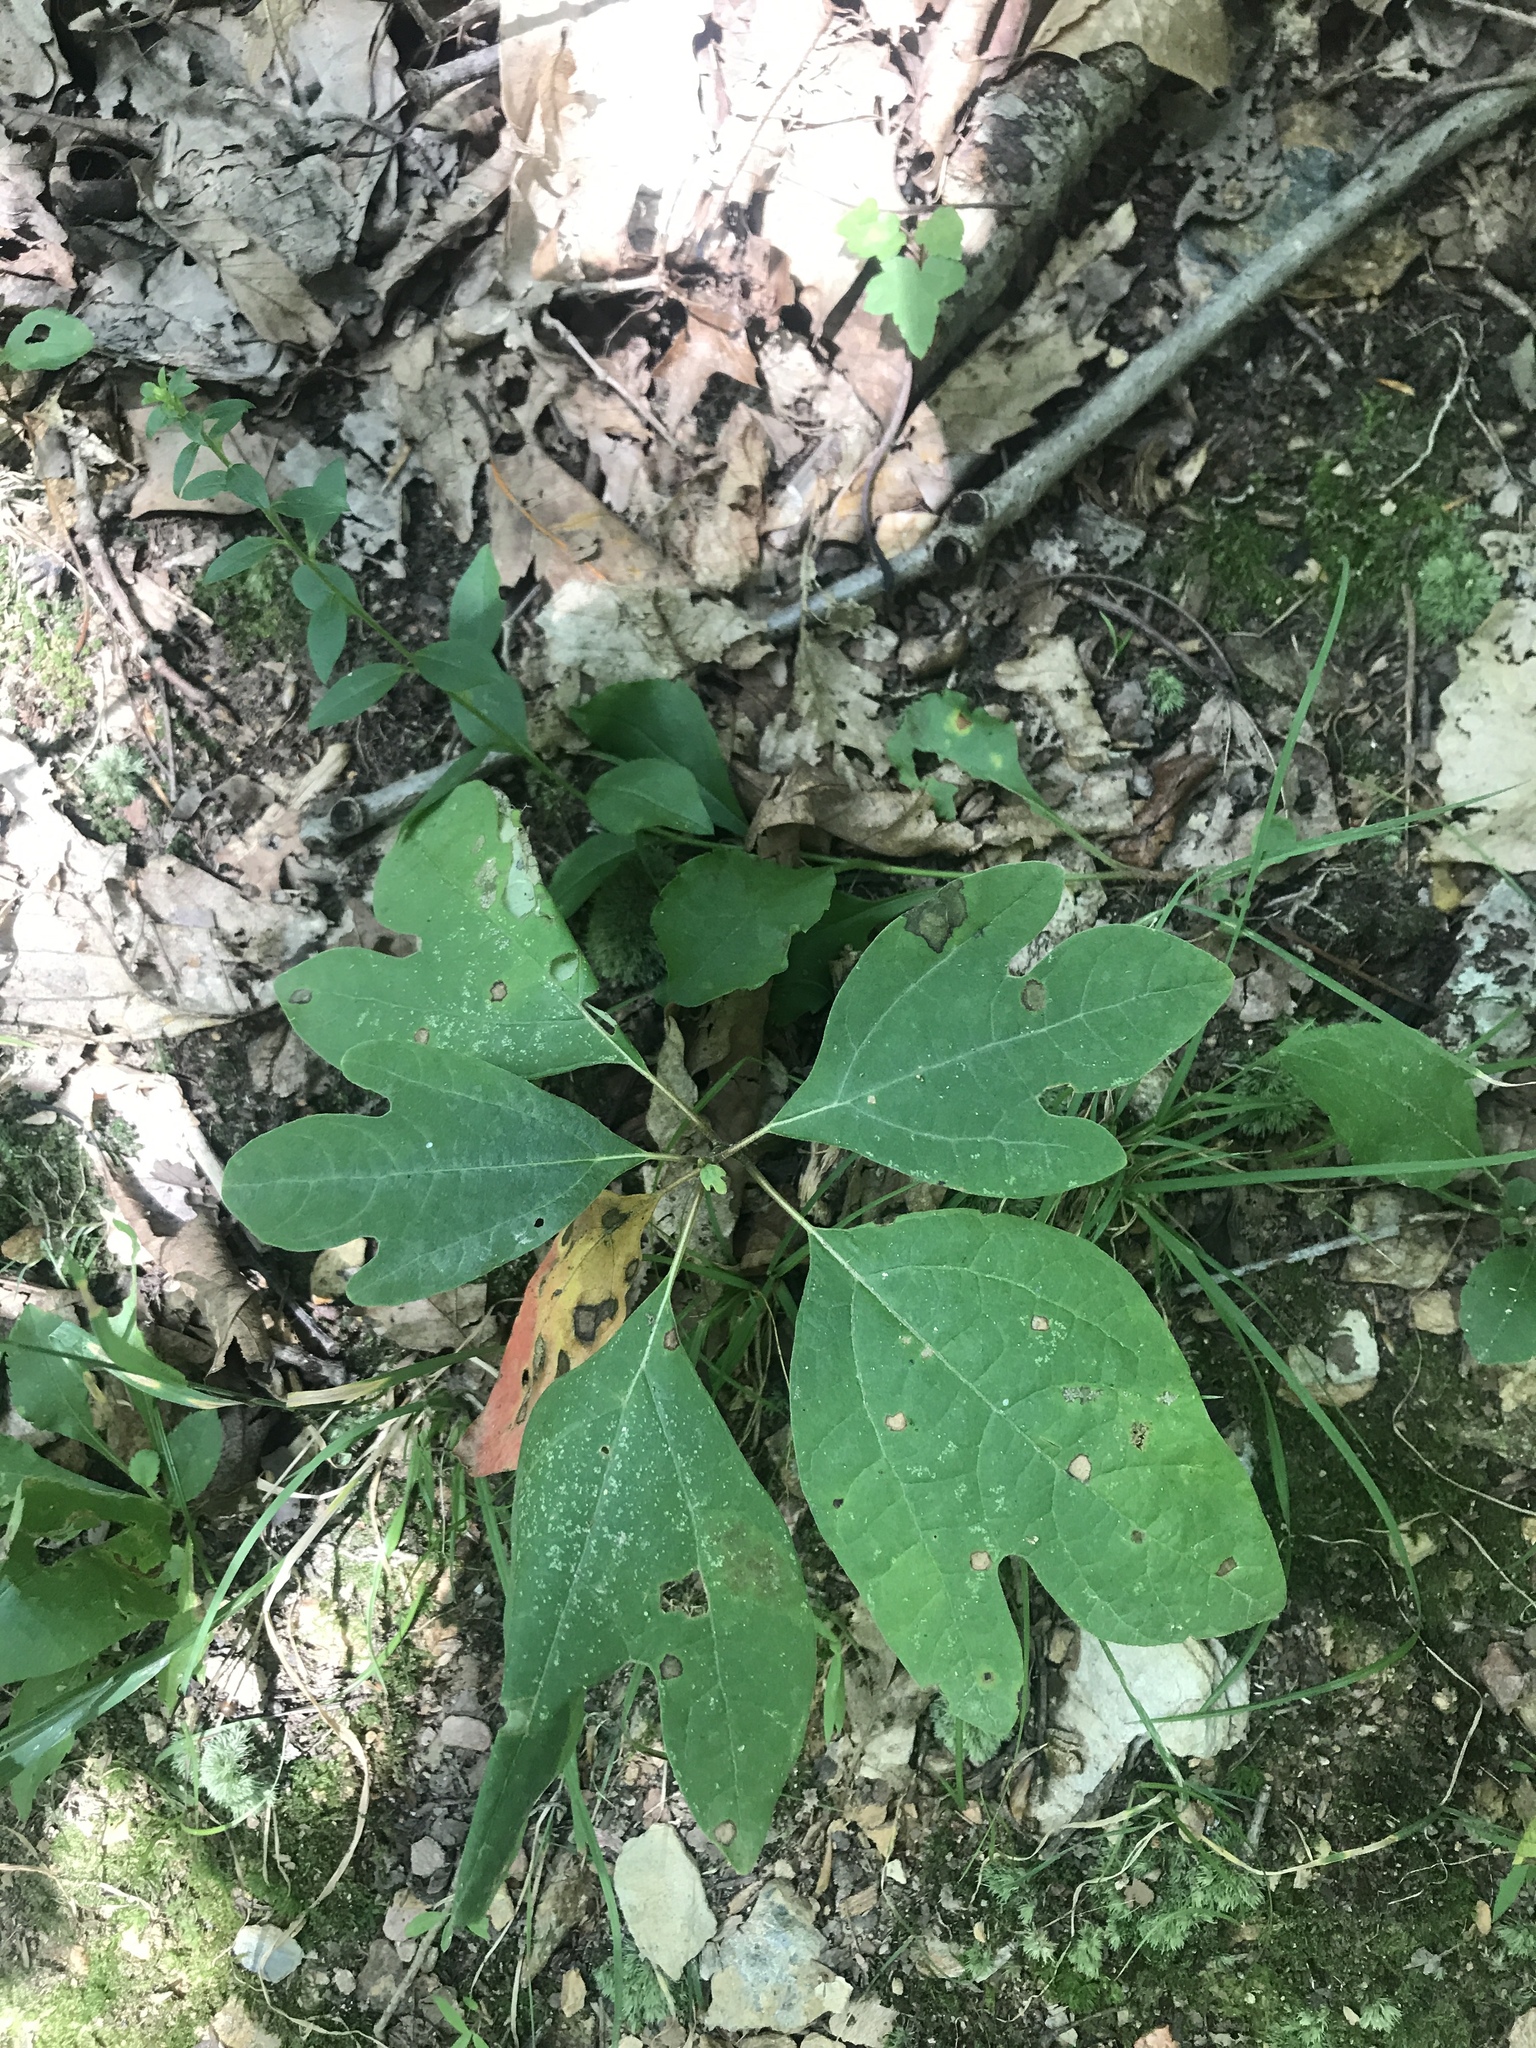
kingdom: Plantae
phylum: Tracheophyta
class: Magnoliopsida
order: Laurales
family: Lauraceae
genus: Sassafras
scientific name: Sassafras albidum
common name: Sassafras
